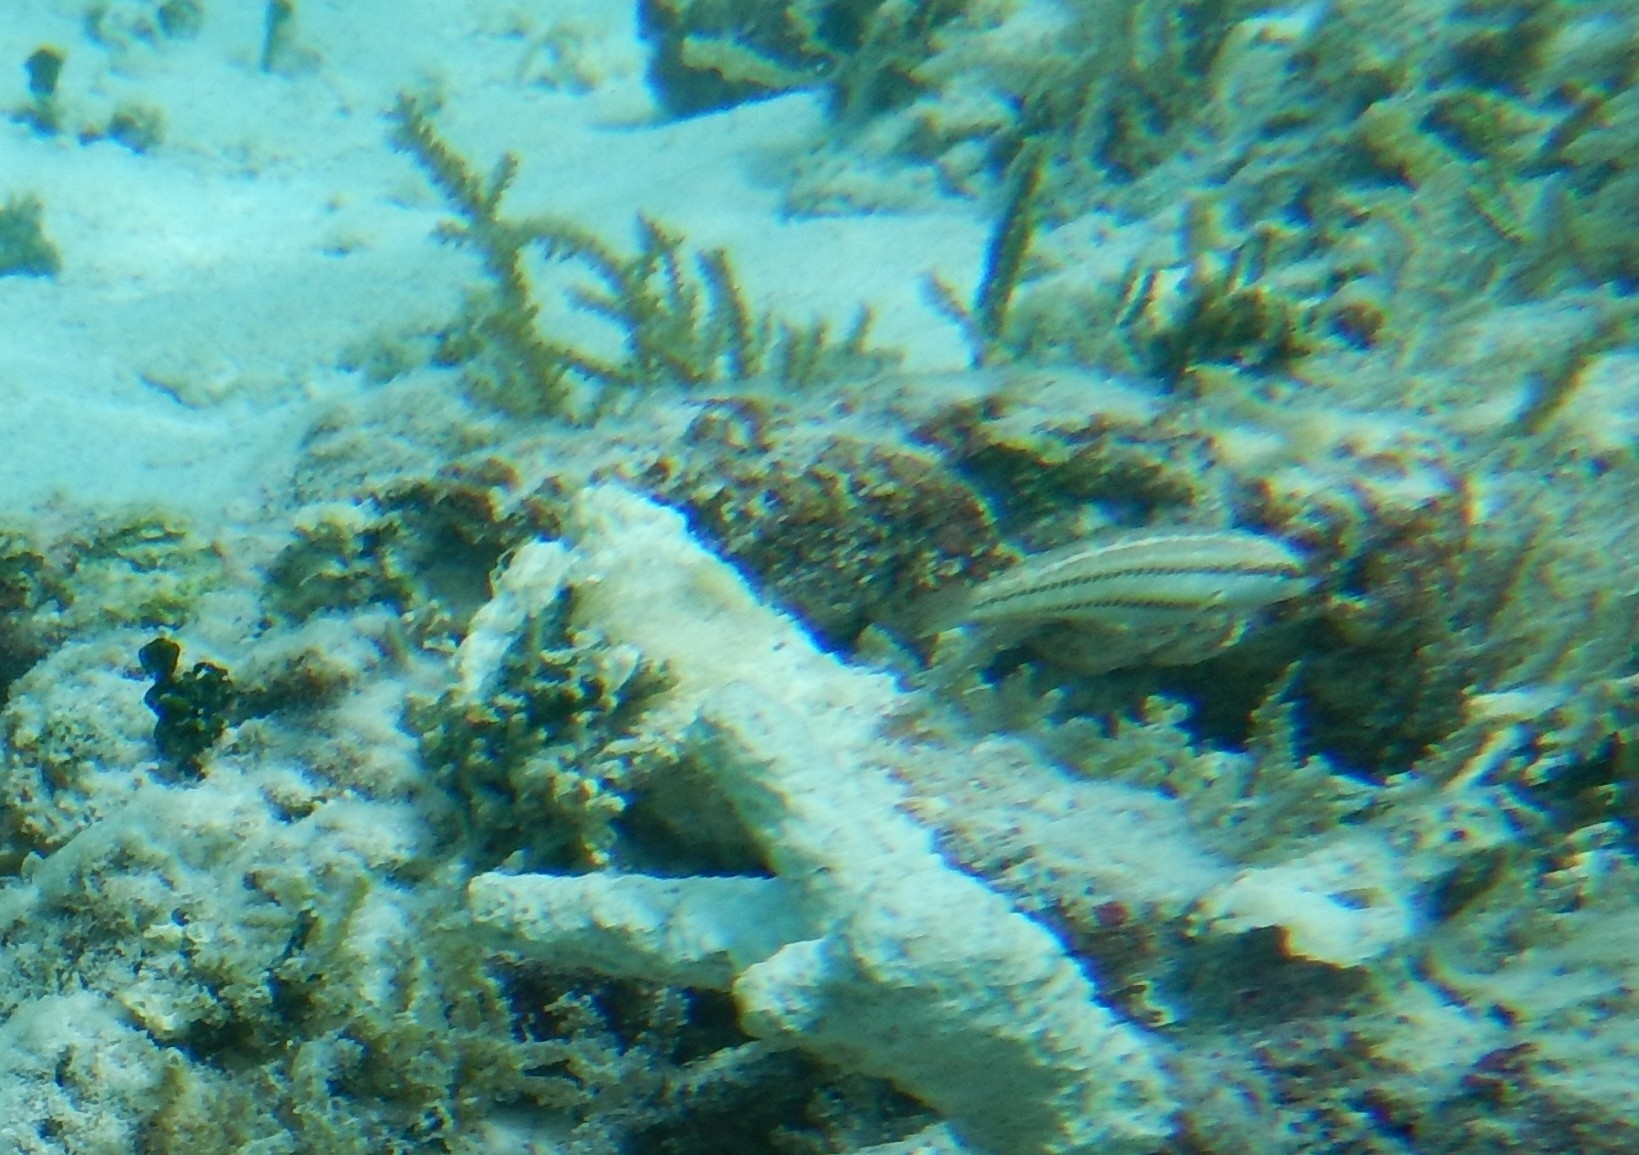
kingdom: Animalia
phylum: Chordata
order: Perciformes
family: Labridae
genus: Halichoeres
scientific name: Halichoeres bivittatus
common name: Slippery dick
